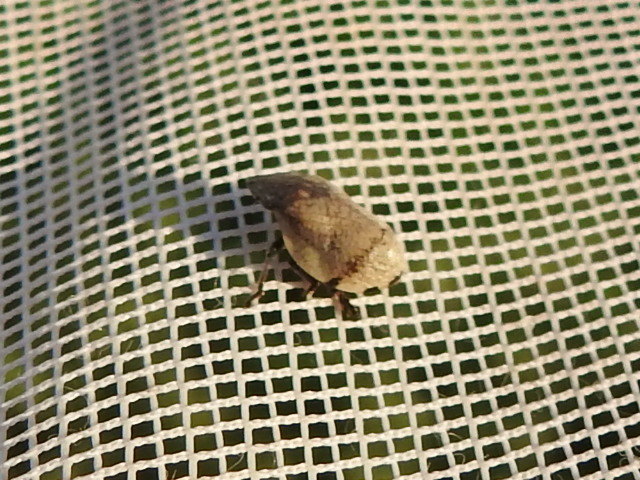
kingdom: Animalia
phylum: Arthropoda
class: Insecta
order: Hemiptera
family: Aphrophoridae
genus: Lepyronia
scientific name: Lepyronia gibbosa
